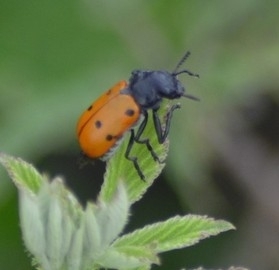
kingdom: Animalia
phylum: Arthropoda
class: Insecta
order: Coleoptera
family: Chrysomelidae
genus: Lachnaia
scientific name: Lachnaia
